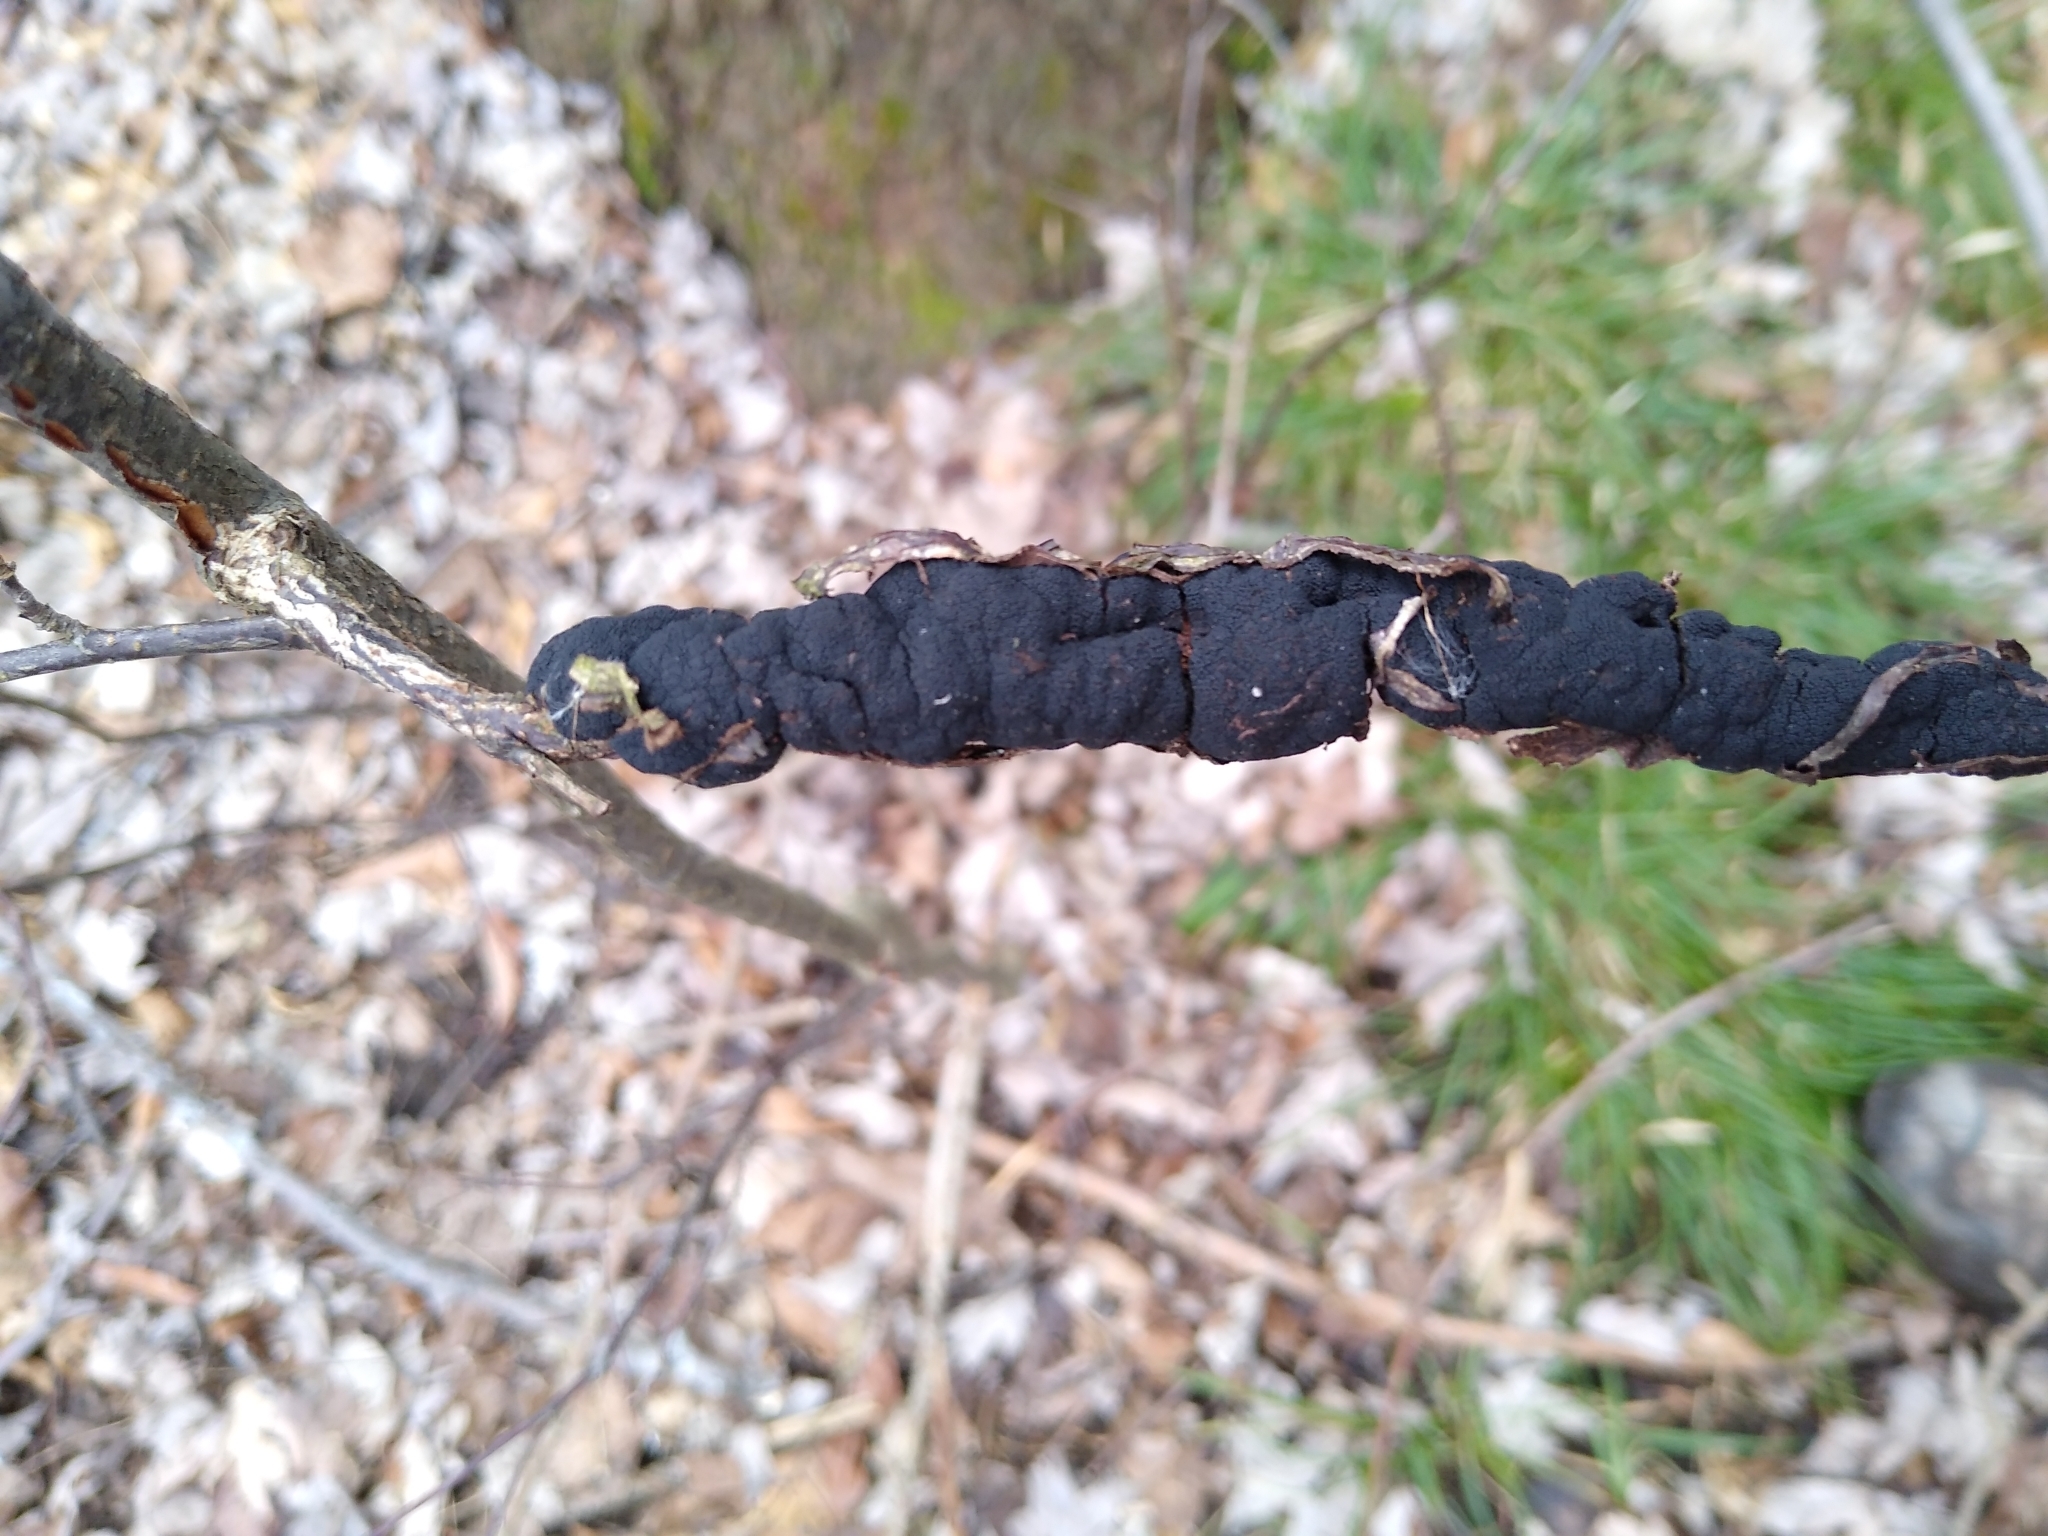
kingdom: Fungi
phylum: Ascomycota
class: Dothideomycetes
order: Venturiales
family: Venturiaceae
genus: Apiosporina
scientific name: Apiosporina morbosa
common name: Black knot
